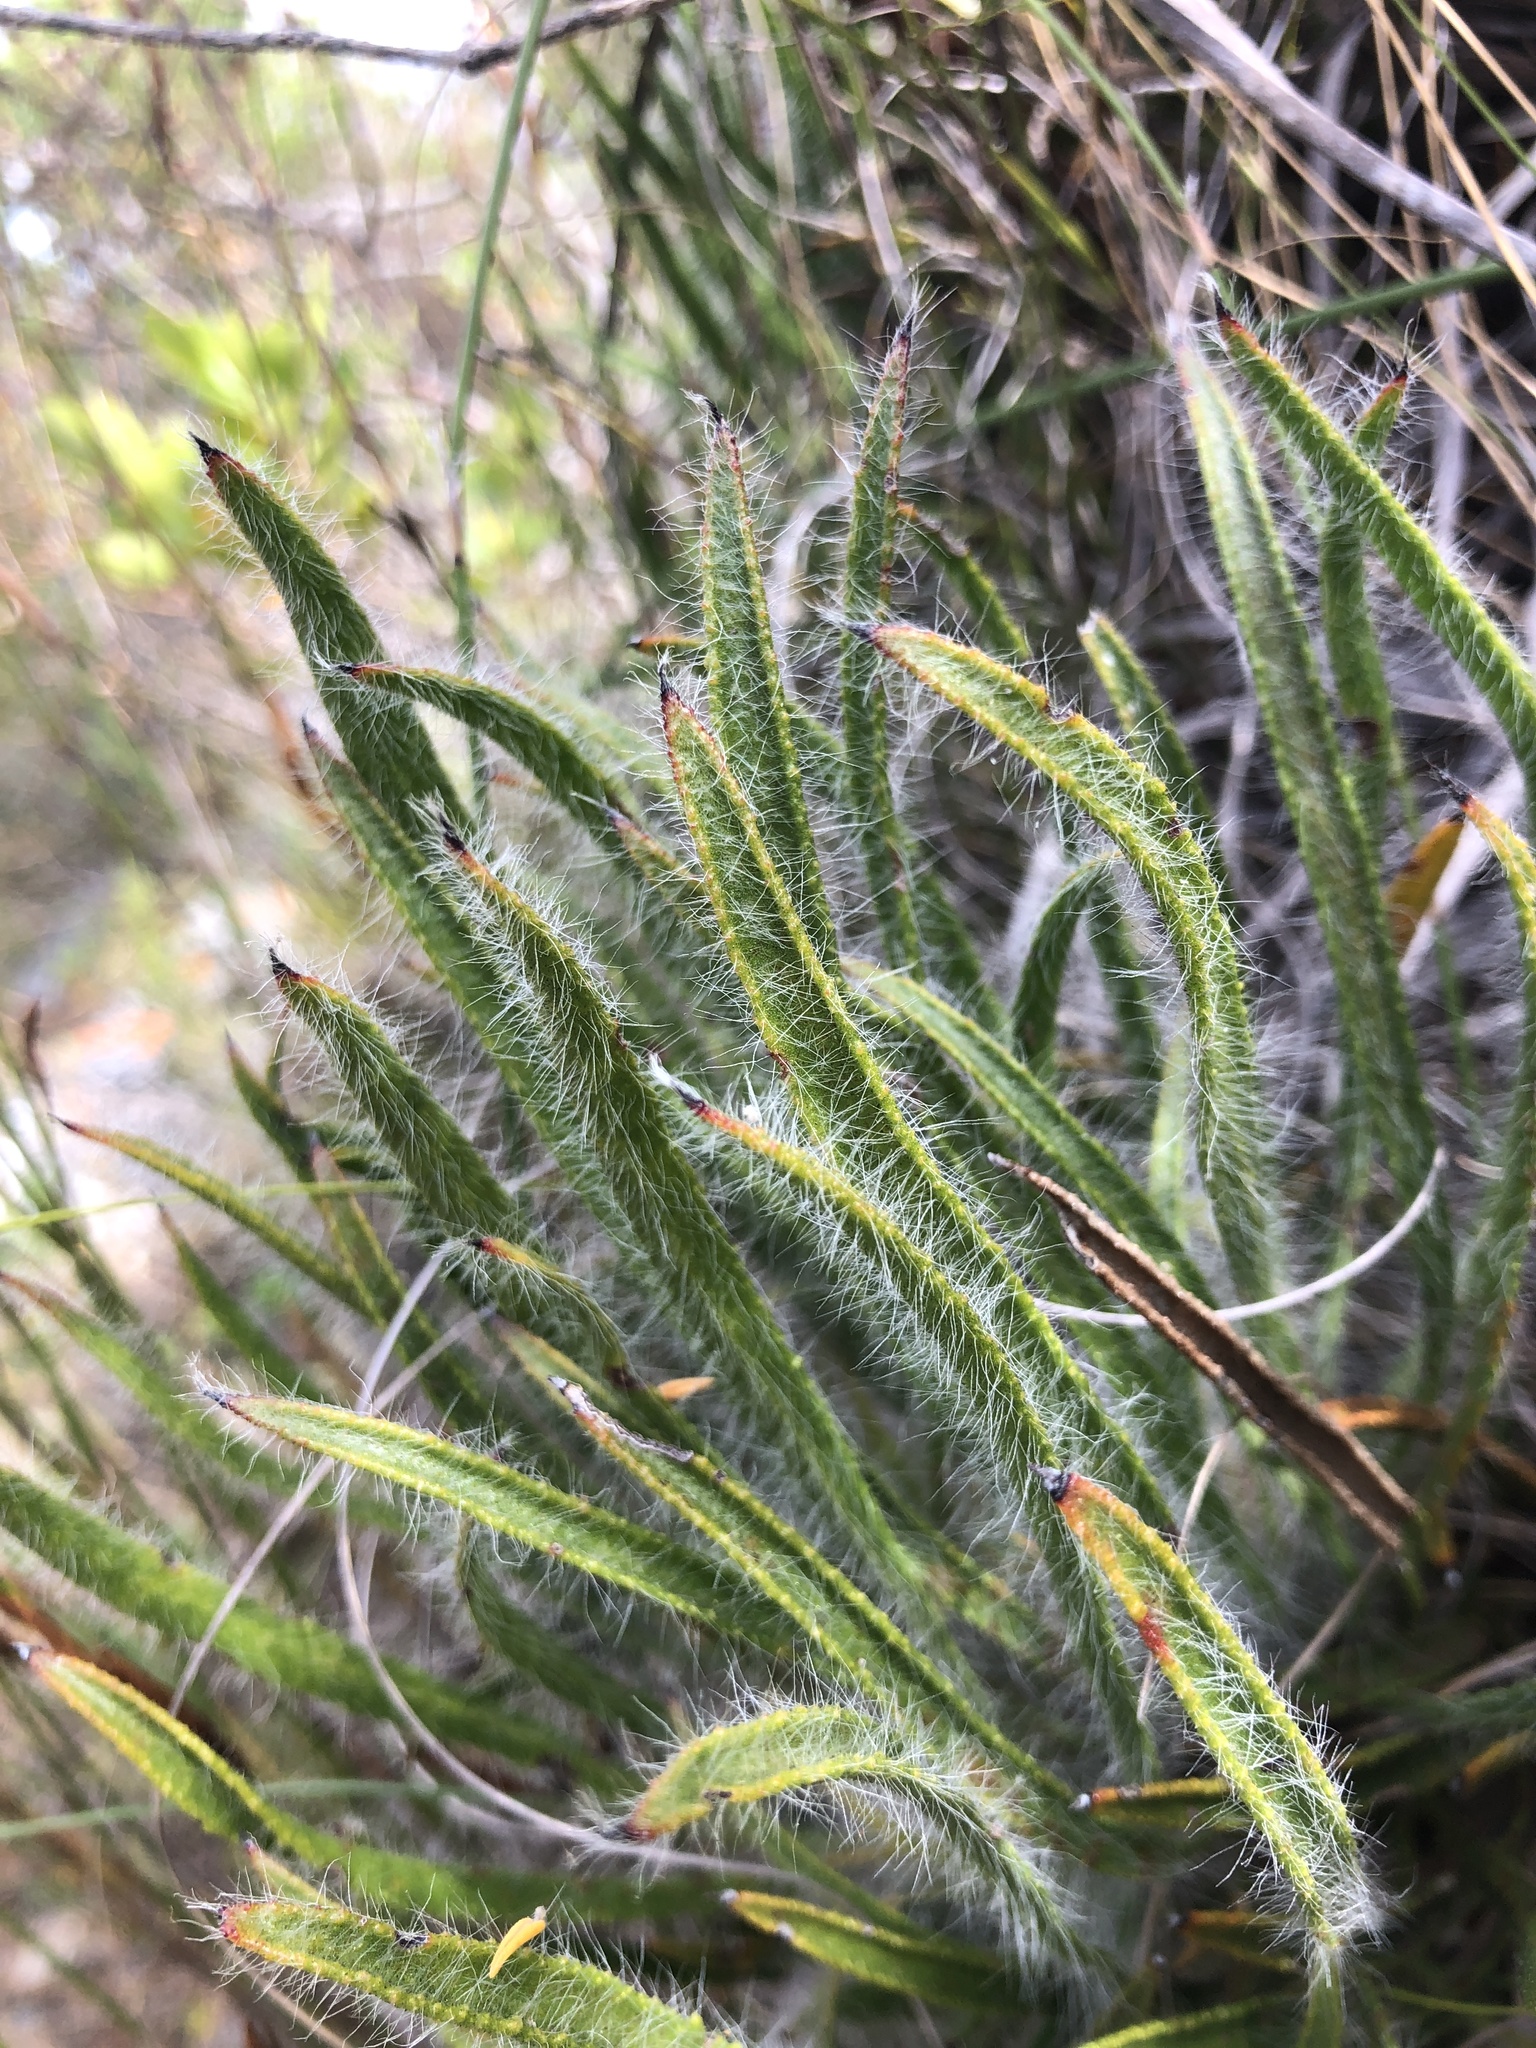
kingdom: Plantae
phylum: Tracheophyta
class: Magnoliopsida
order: Proteales
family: Proteaceae
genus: Protea
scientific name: Protea denticulata
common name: Tooth-leaf sugarbush
